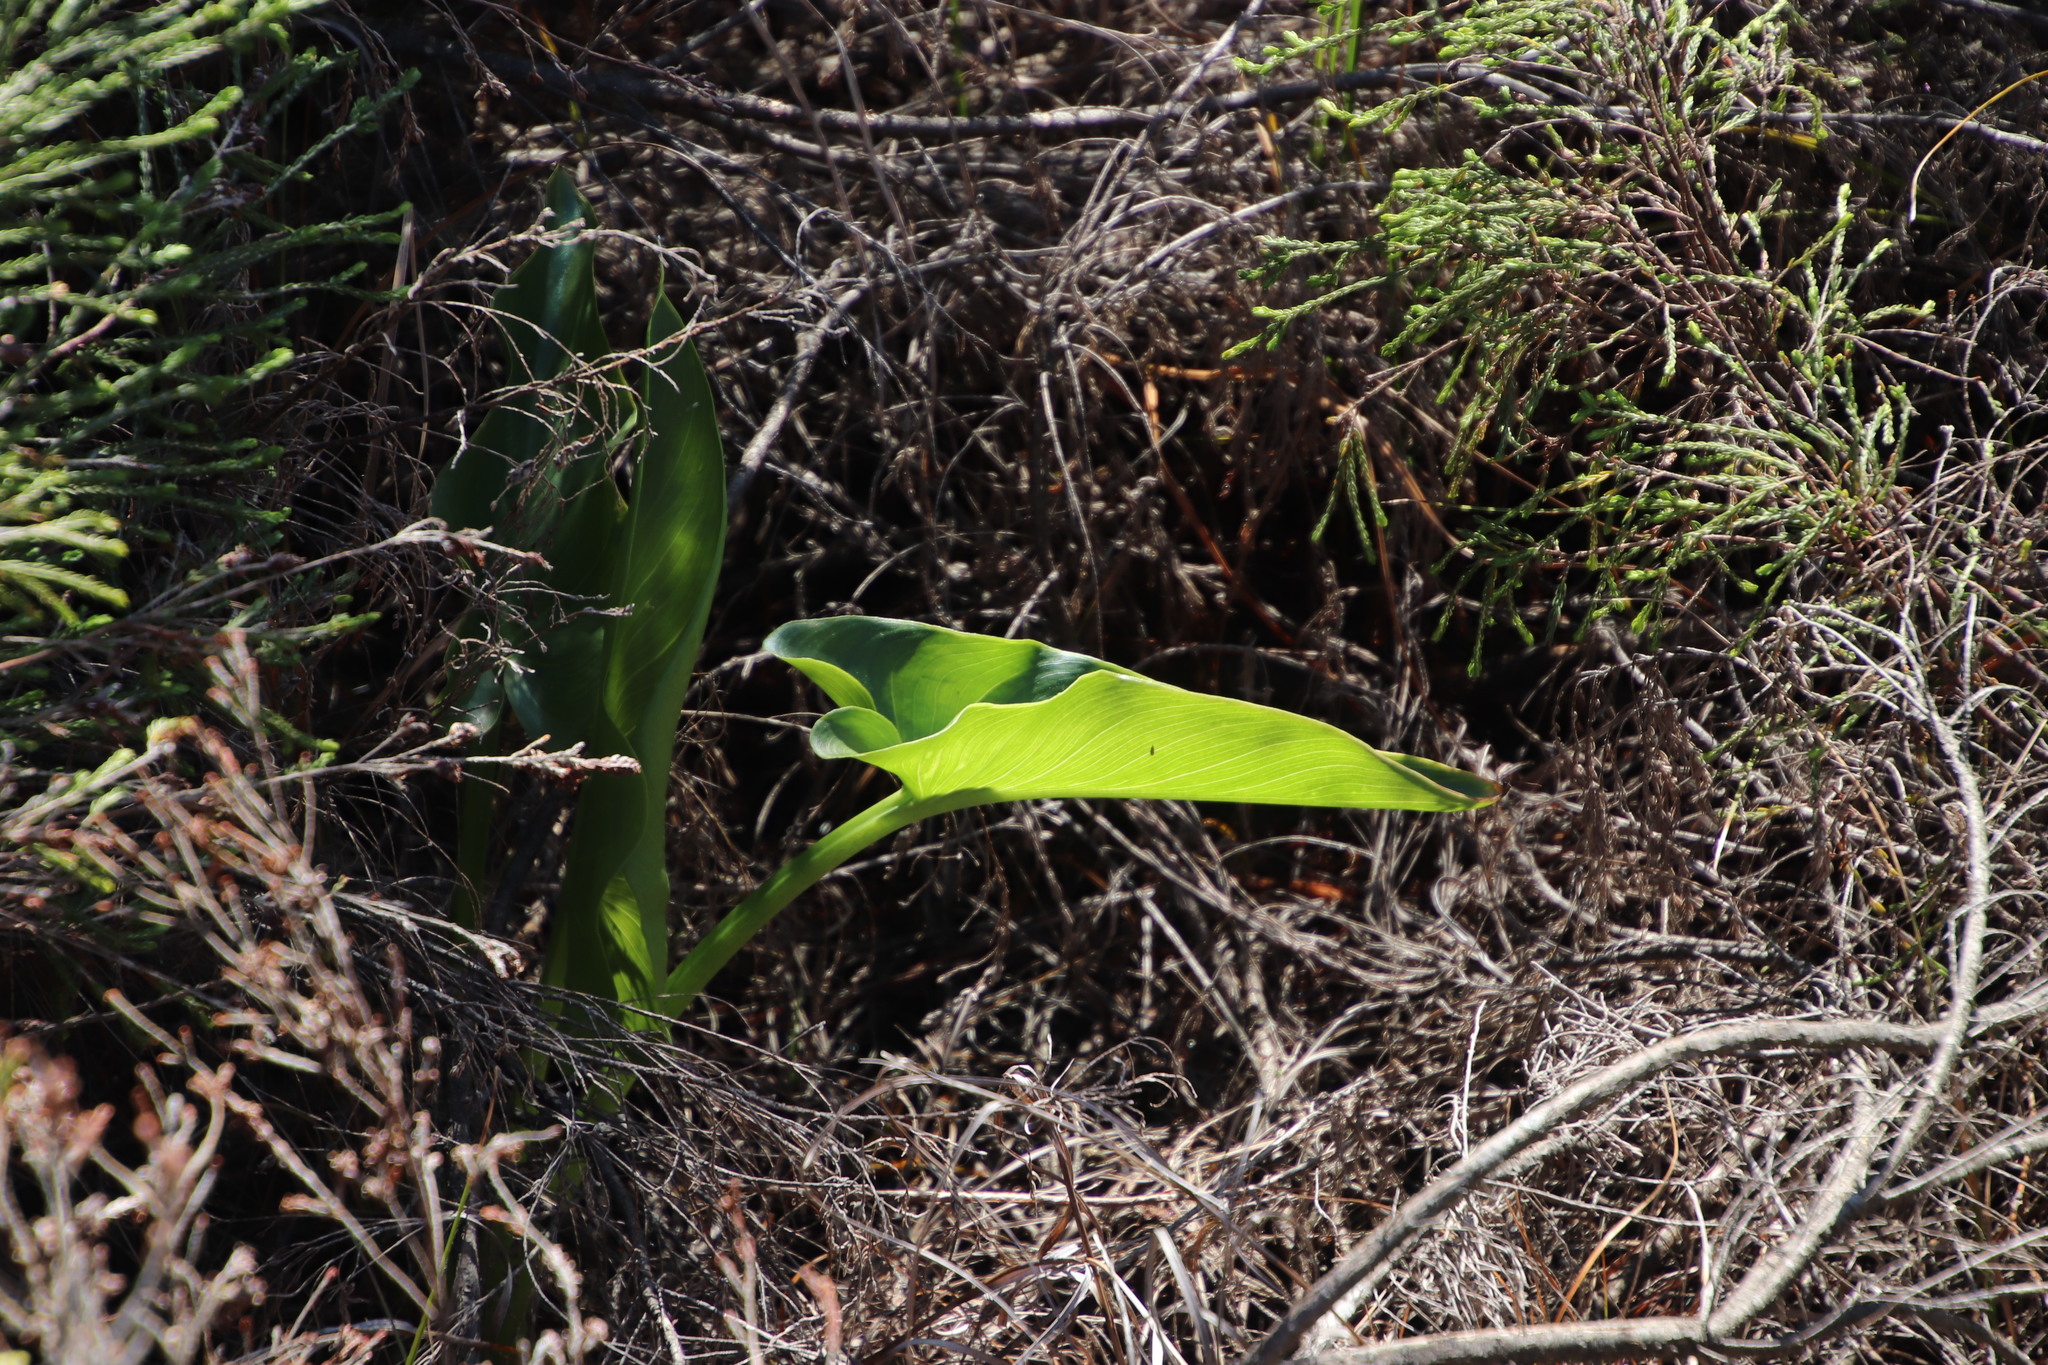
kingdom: Plantae
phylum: Tracheophyta
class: Liliopsida
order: Alismatales
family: Araceae
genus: Zantedeschia
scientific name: Zantedeschia aethiopica
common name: Altar-lily
